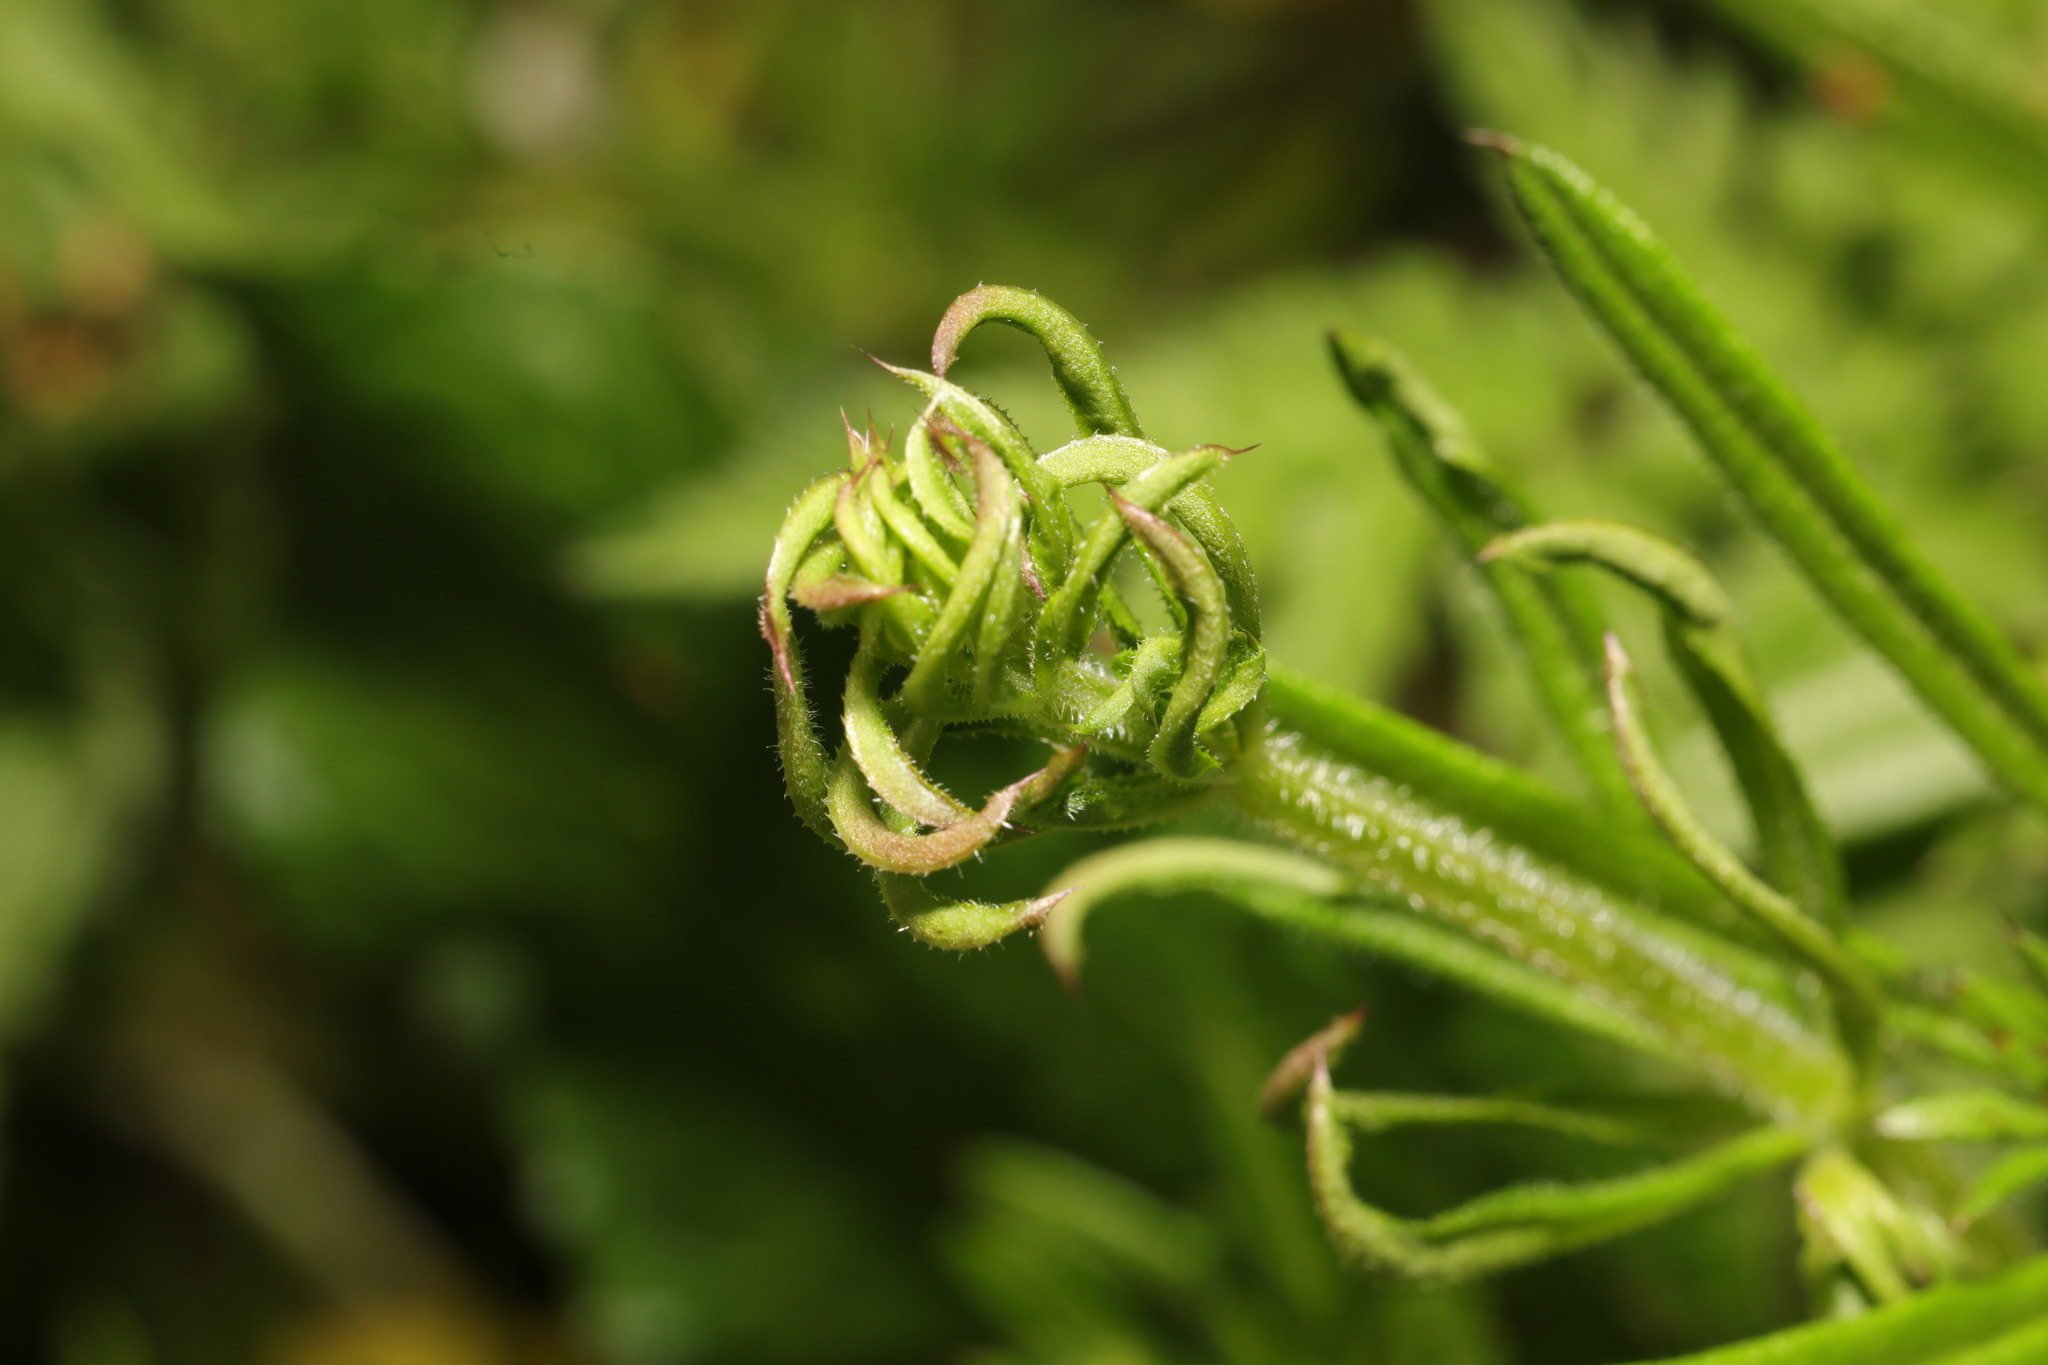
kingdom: Animalia
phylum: Arthropoda
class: Arachnida
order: Trombidiformes
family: Eriophyidae
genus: Cecidophyes
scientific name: Cecidophyes rouhollahi
